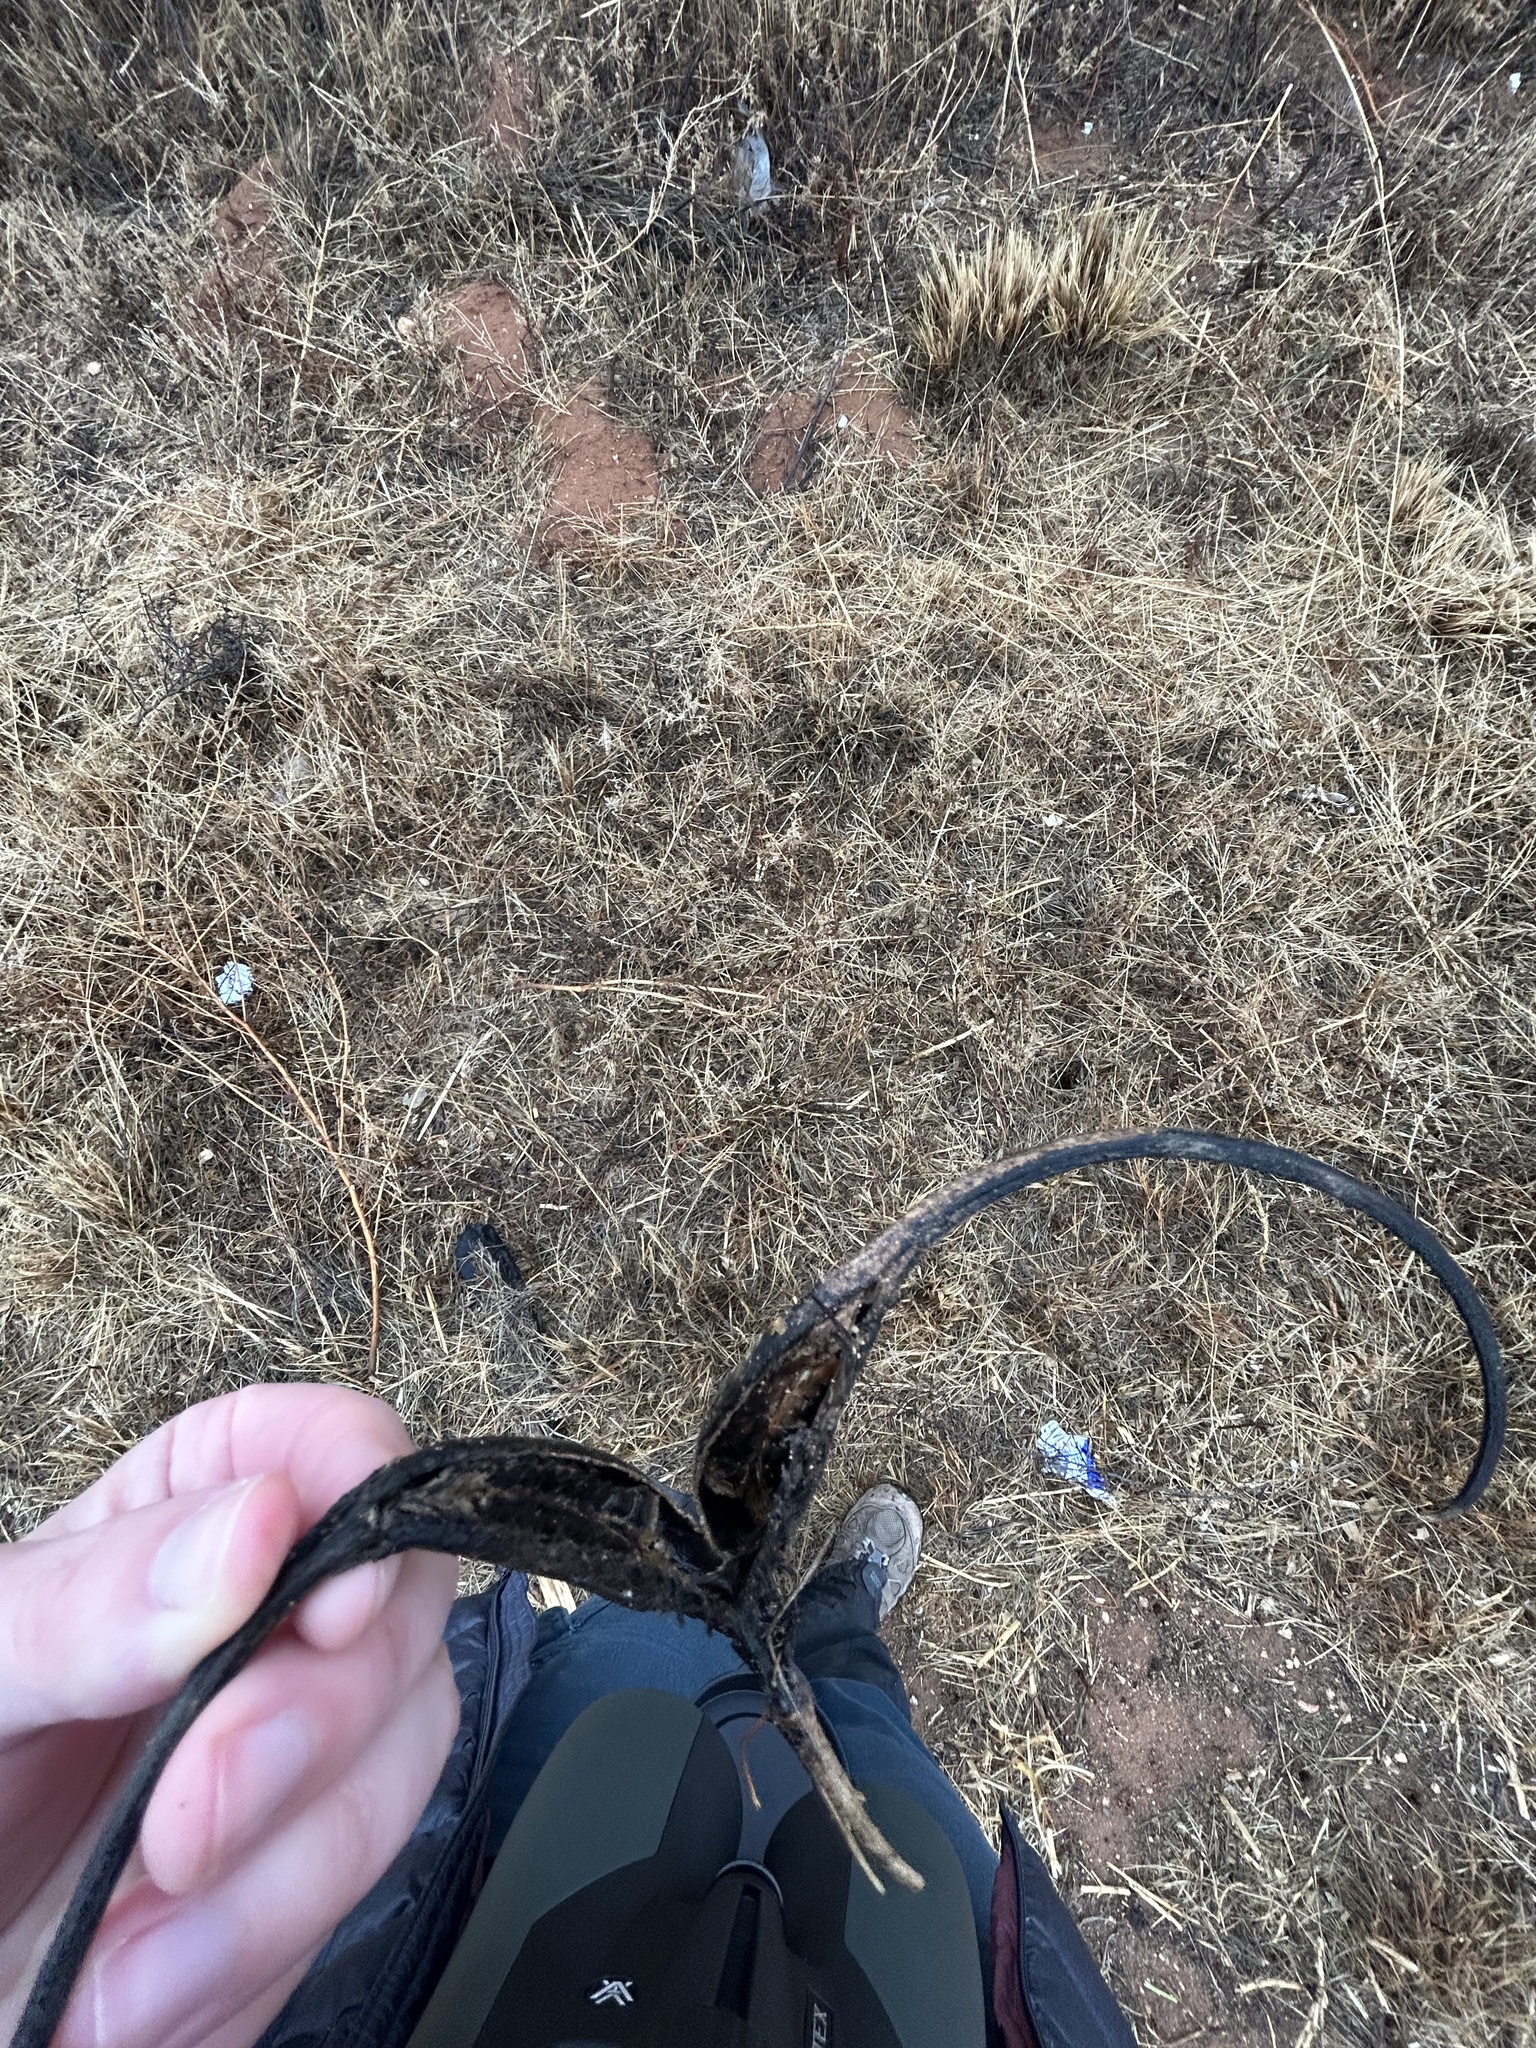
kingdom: Plantae
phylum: Tracheophyta
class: Magnoliopsida
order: Lamiales
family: Martyniaceae
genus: Proboscidea
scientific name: Proboscidea louisianica
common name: Elephant tusks
